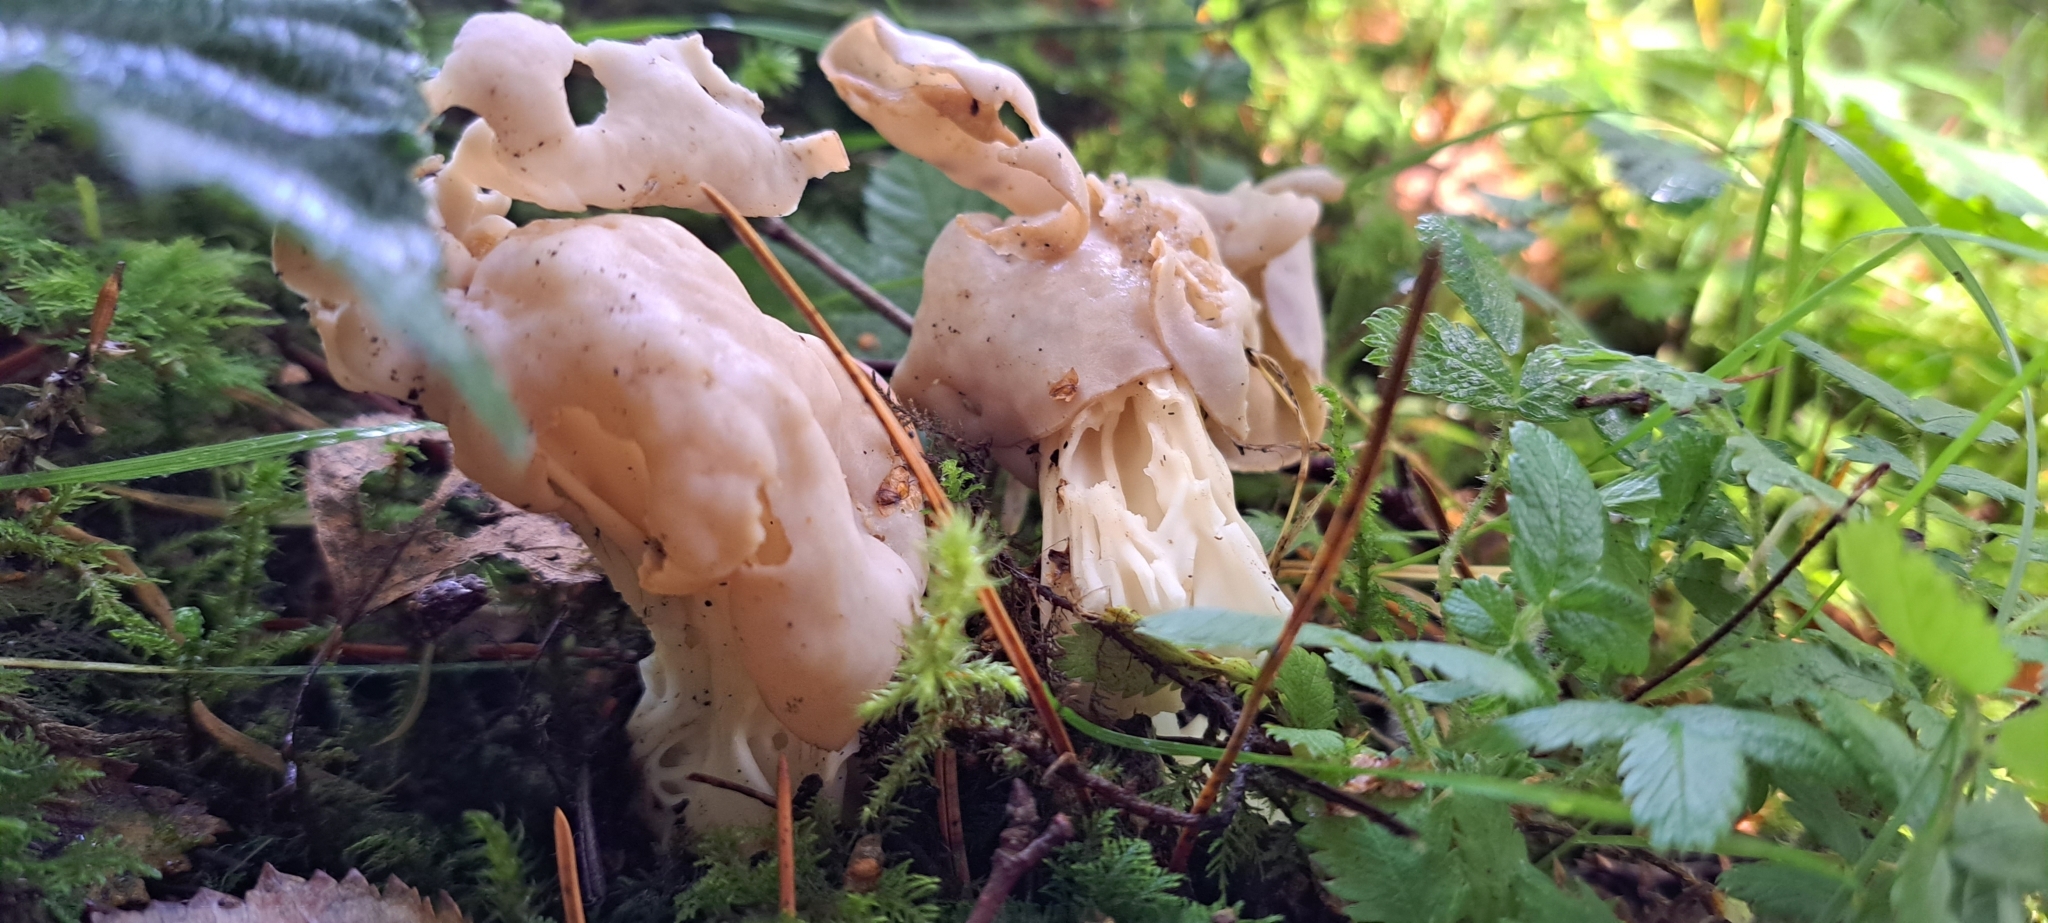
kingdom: Fungi
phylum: Ascomycota
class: Pezizomycetes
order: Pezizales
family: Helvellaceae
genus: Helvella
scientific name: Helvella crispa
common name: White saddle
